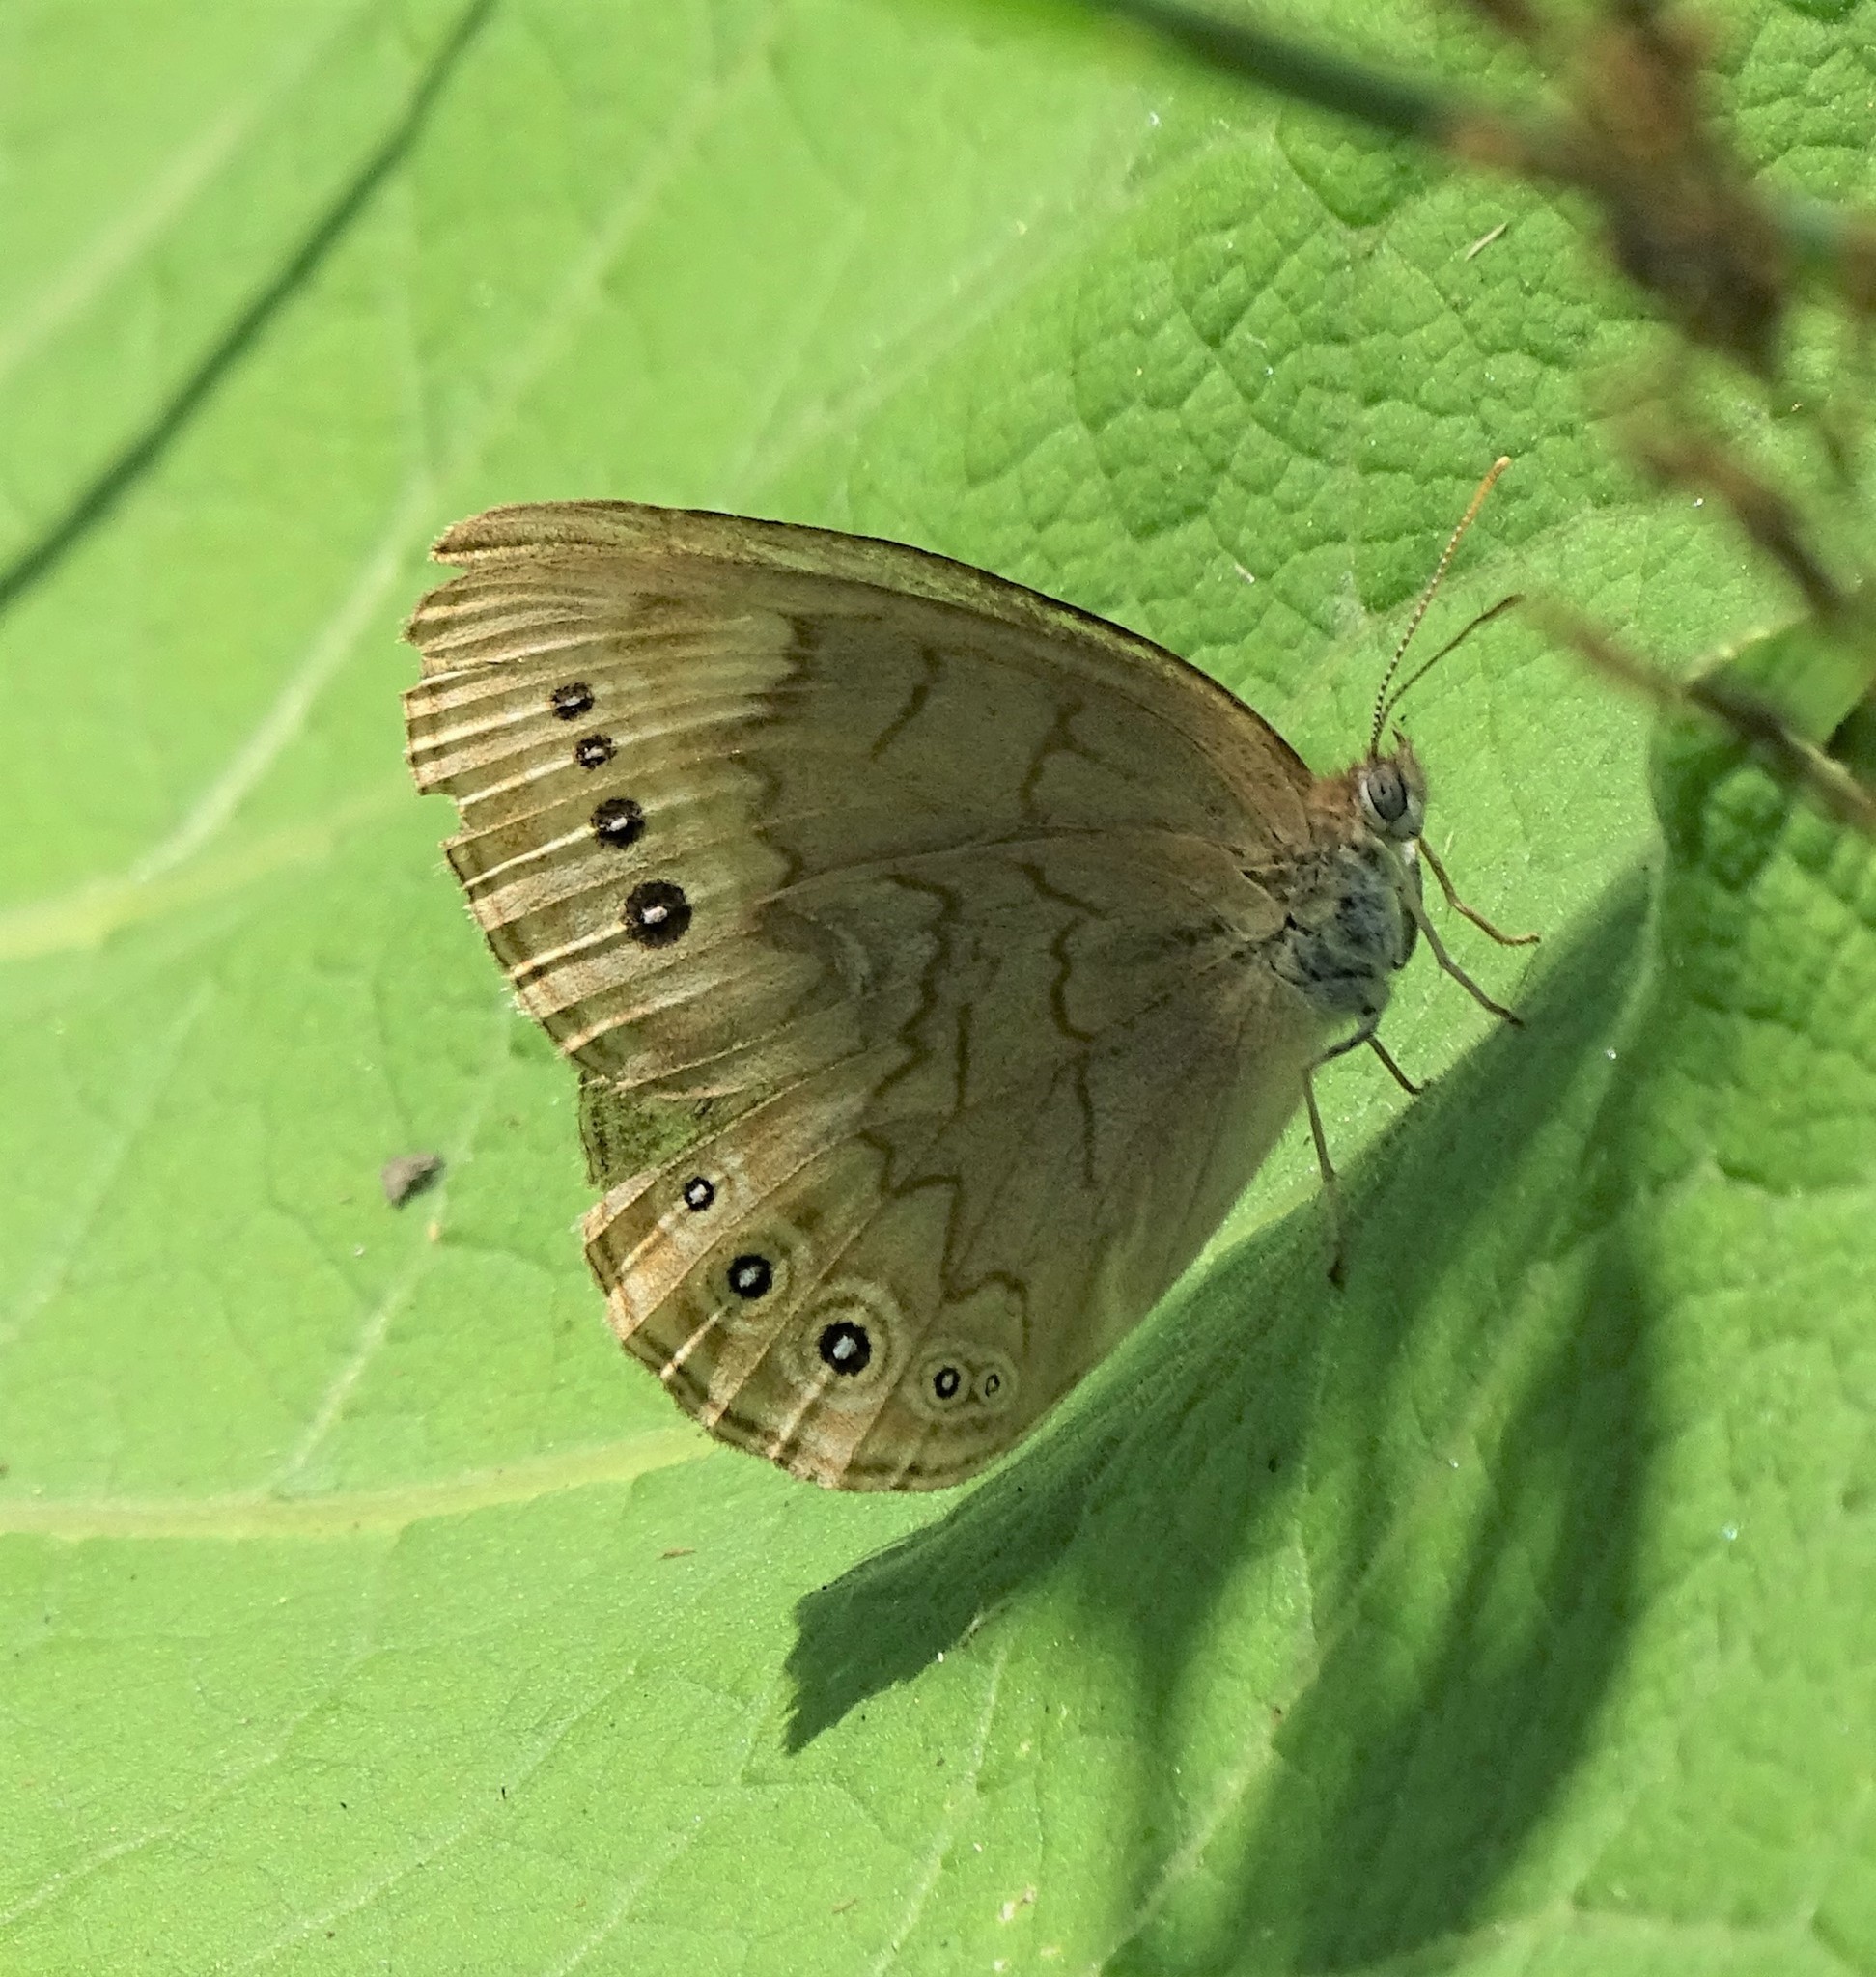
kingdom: Animalia
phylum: Arthropoda
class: Insecta
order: Lepidoptera
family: Nymphalidae
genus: Lethe
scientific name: Lethe eurydice
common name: Eyed brown
